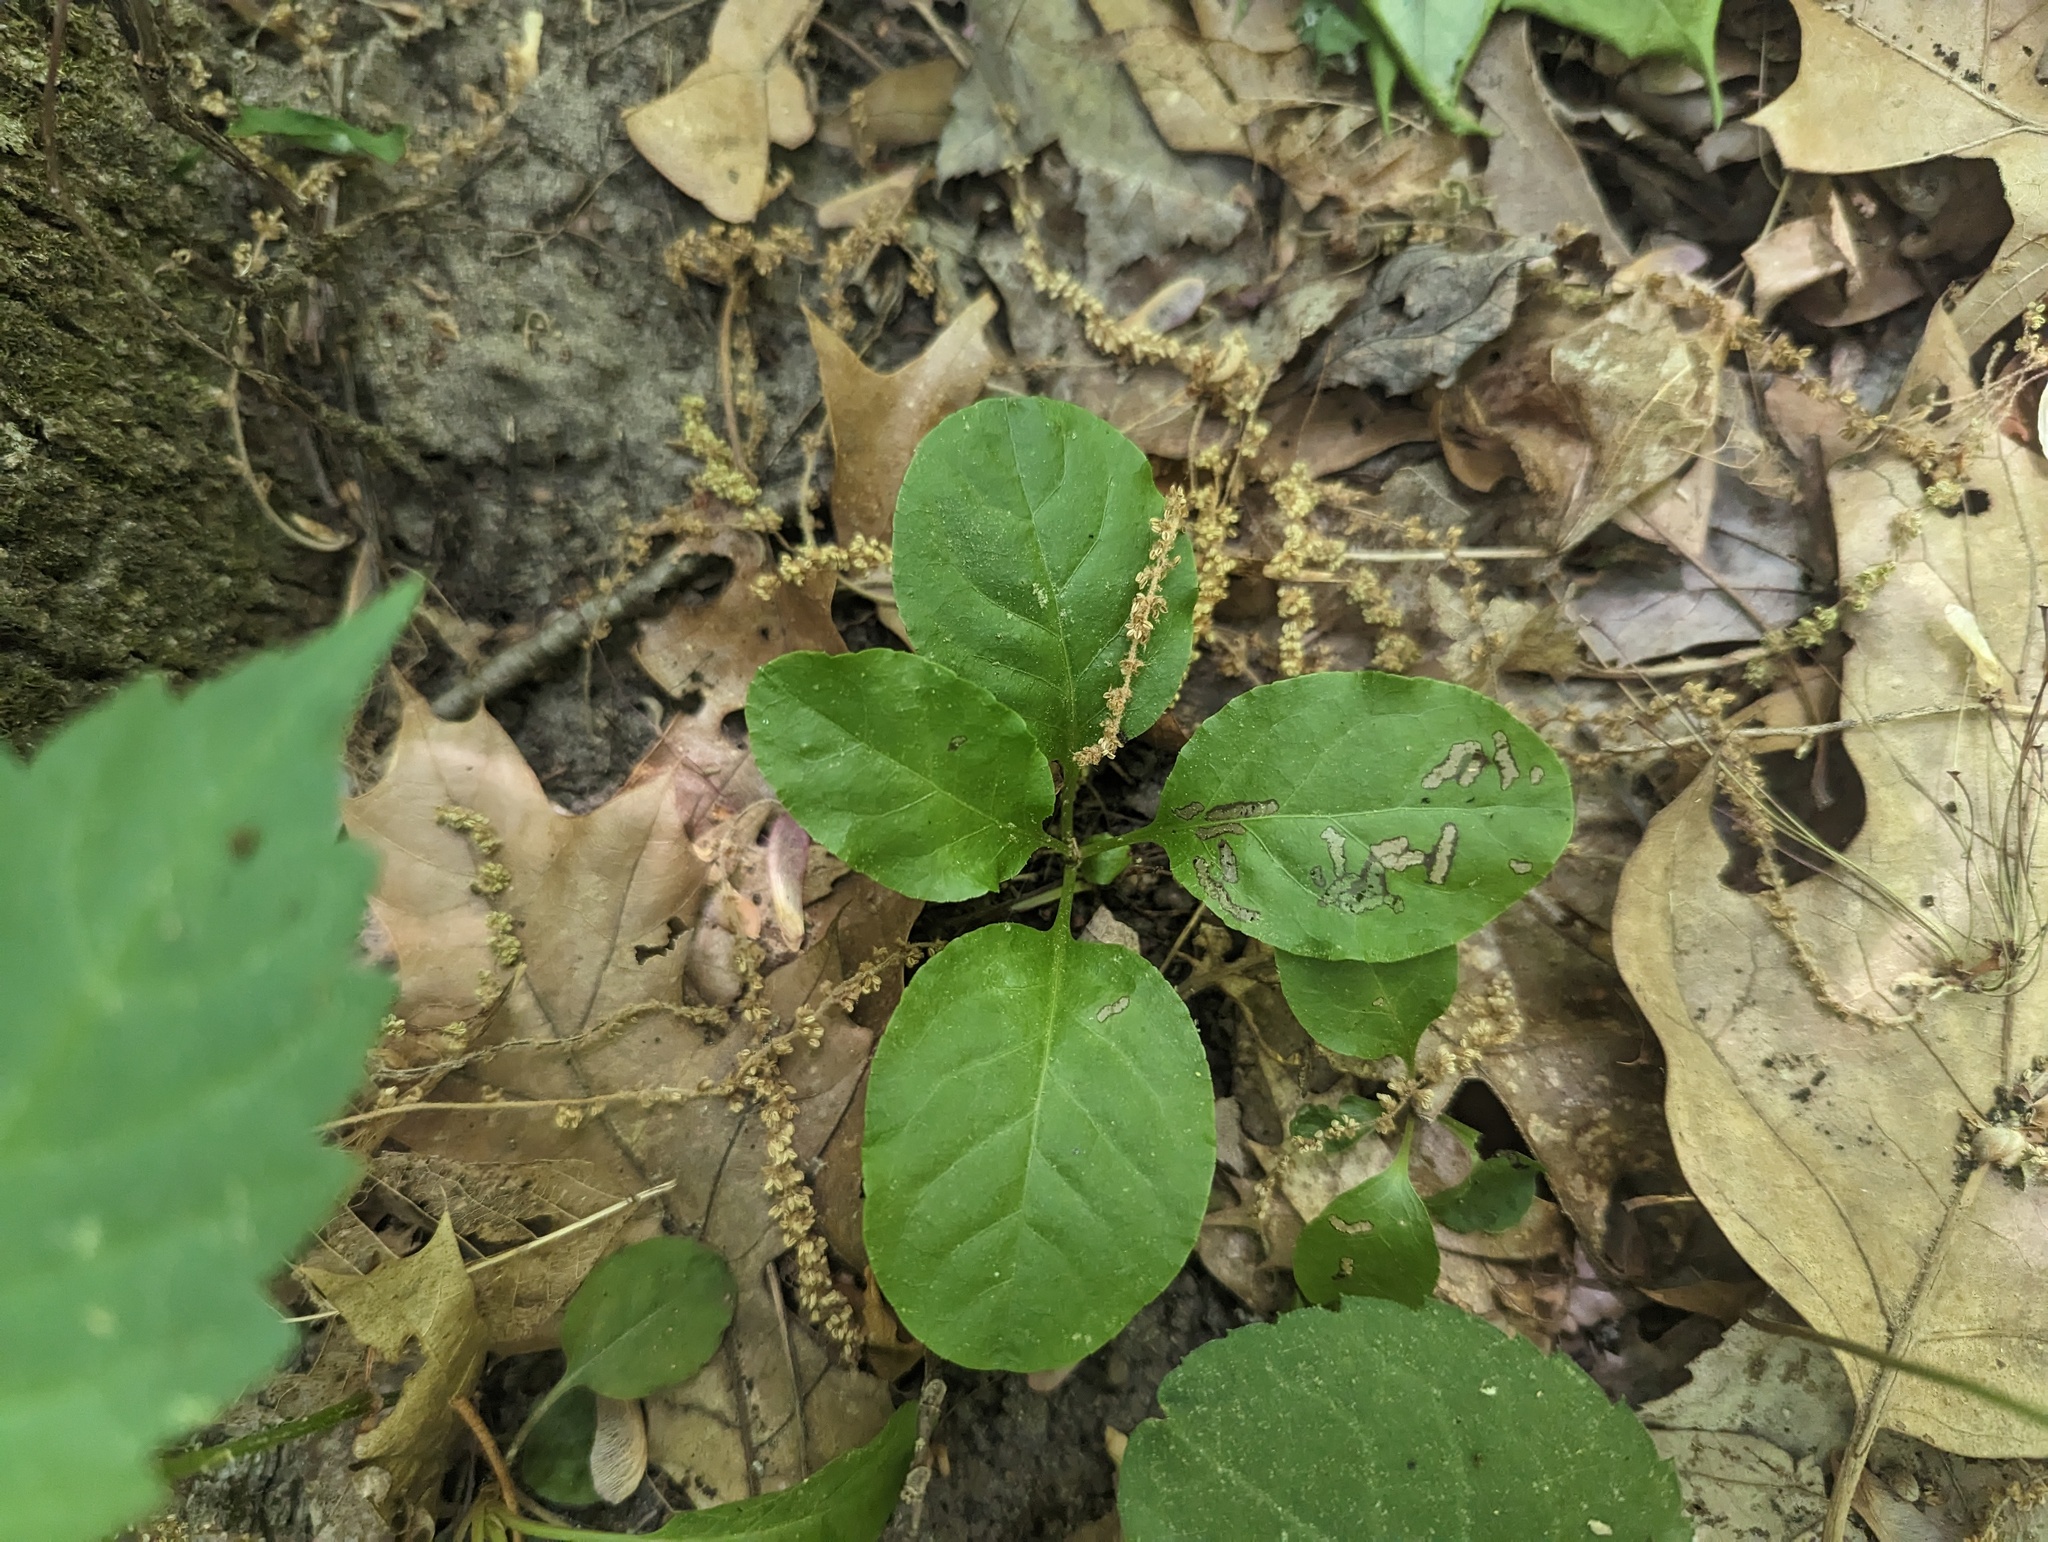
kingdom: Plantae
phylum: Tracheophyta
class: Magnoliopsida
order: Ericales
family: Ericaceae
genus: Pyrola
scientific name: Pyrola elliptica
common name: Shinleaf
